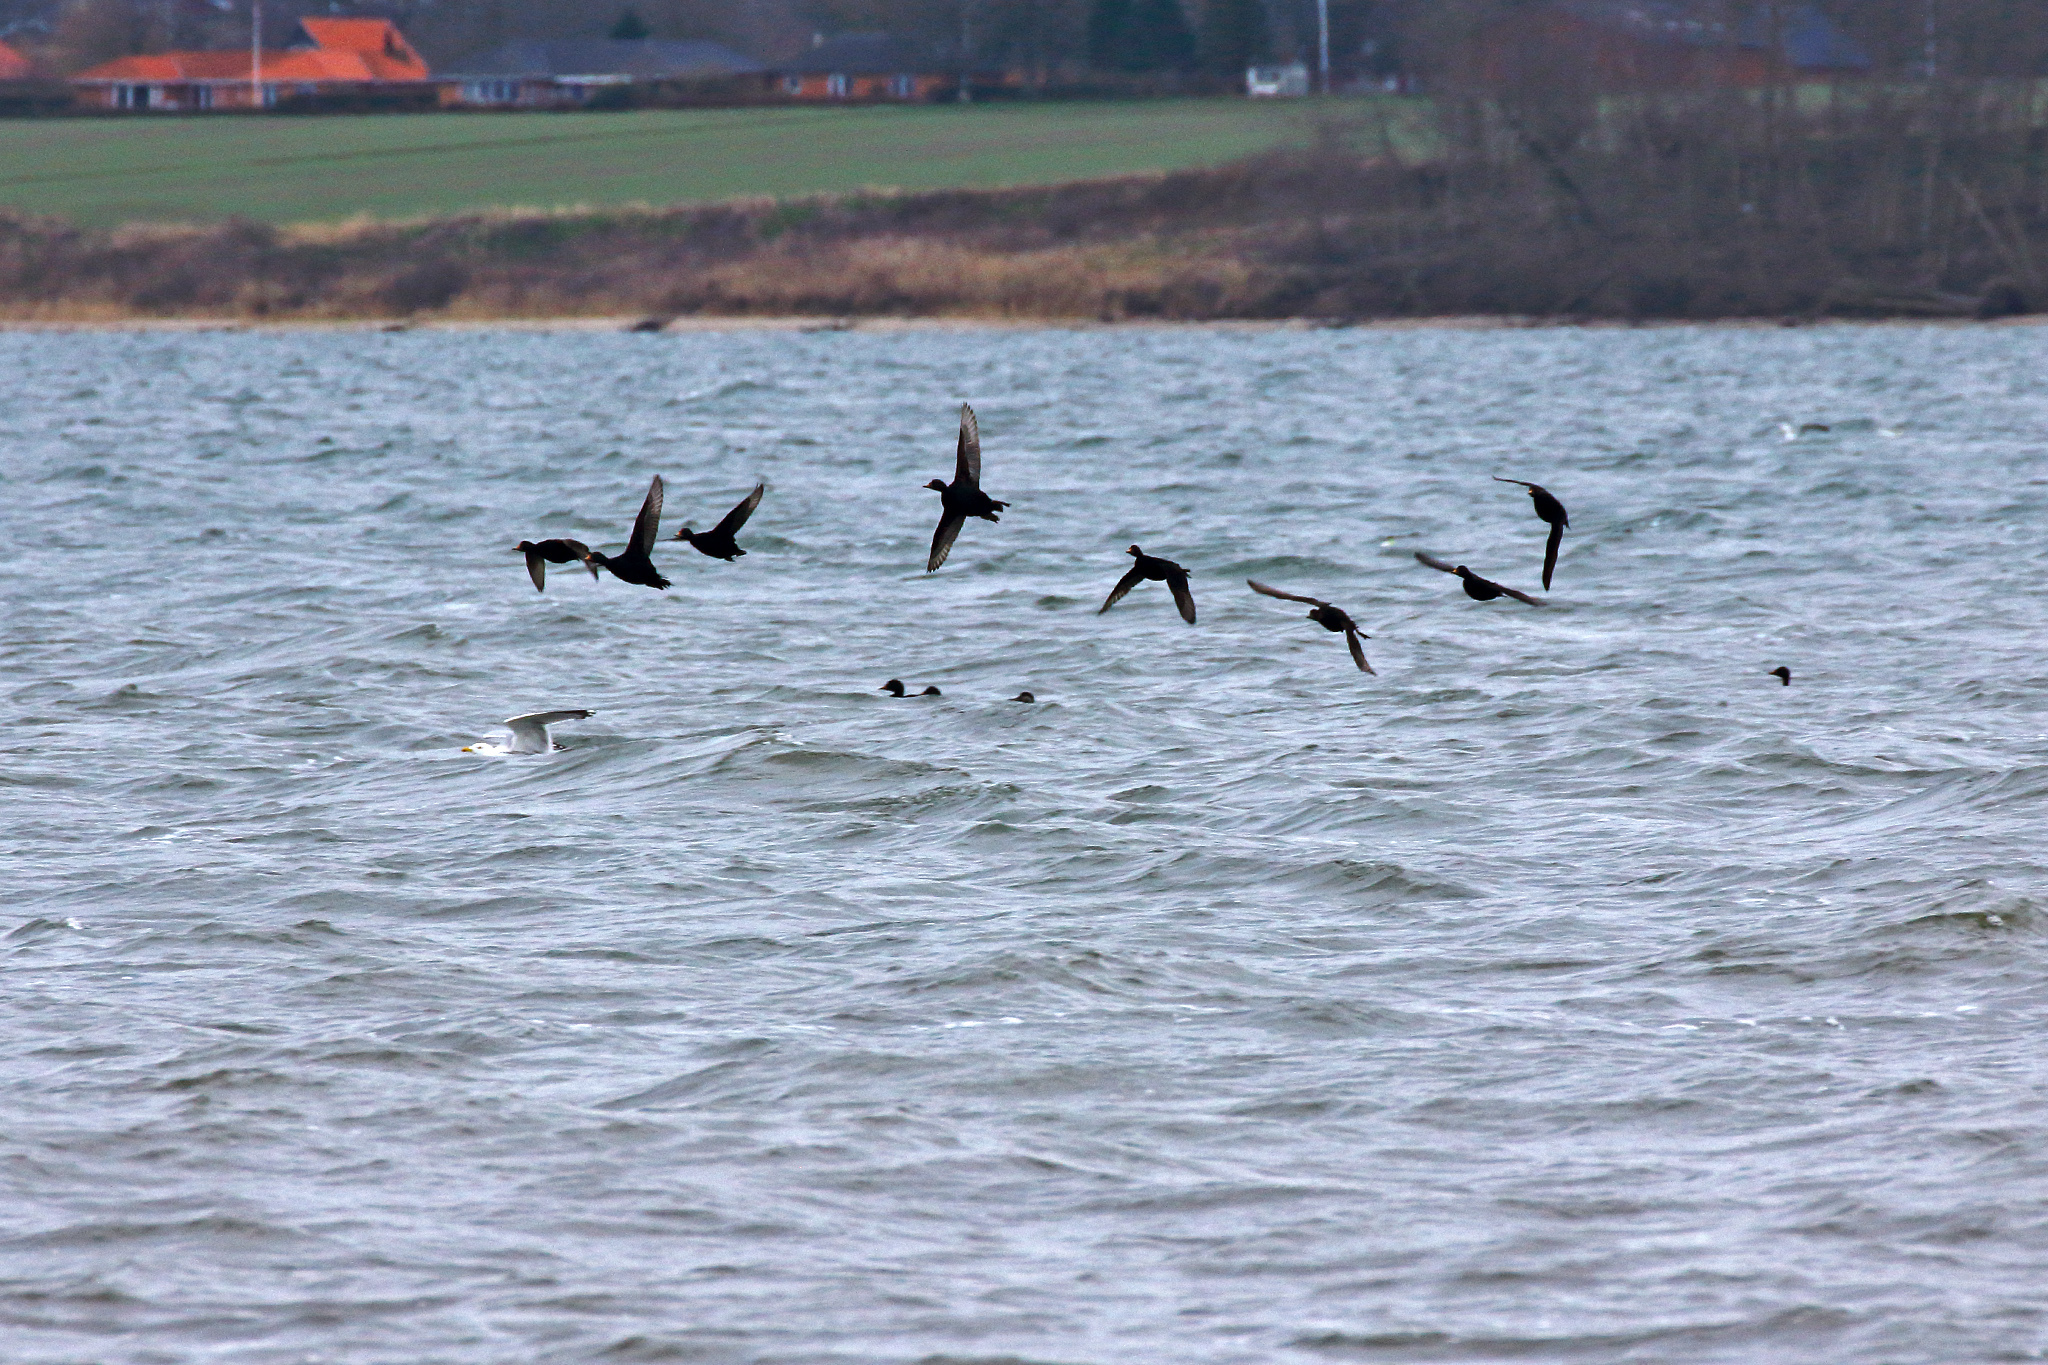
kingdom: Animalia
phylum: Chordata
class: Aves
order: Anseriformes
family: Anatidae
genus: Melanitta
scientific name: Melanitta nigra
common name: Common scoter
